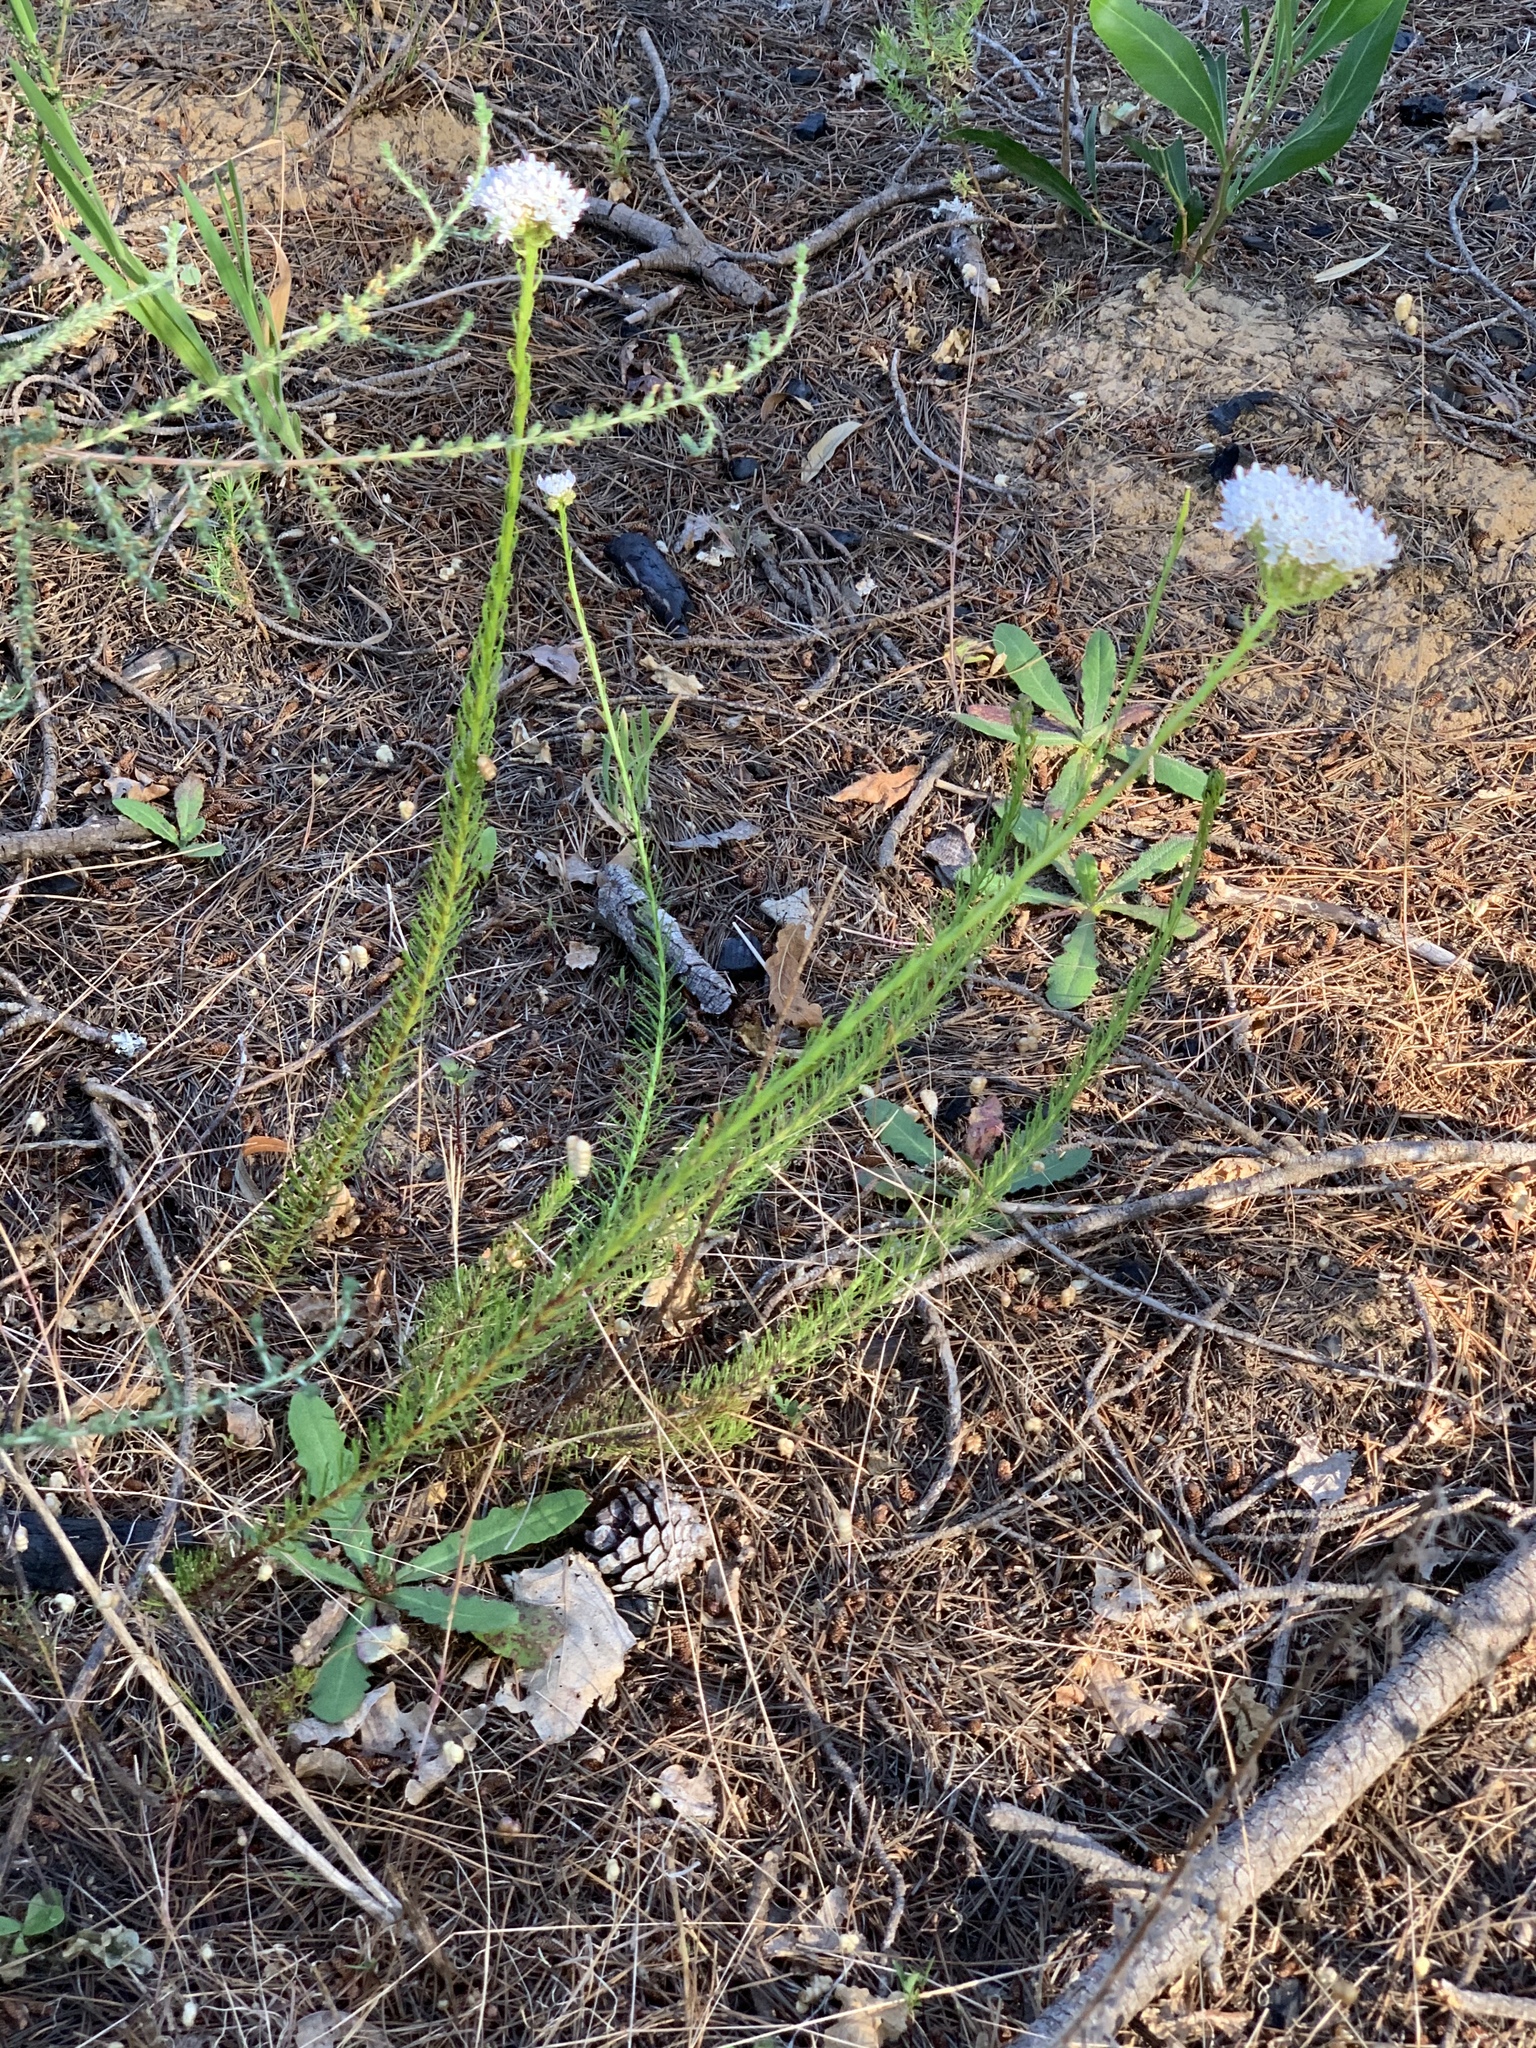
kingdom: Plantae
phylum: Tracheophyta
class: Magnoliopsida
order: Lamiales
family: Scrophulariaceae
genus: Pseudoselago
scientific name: Pseudoselago spuria
